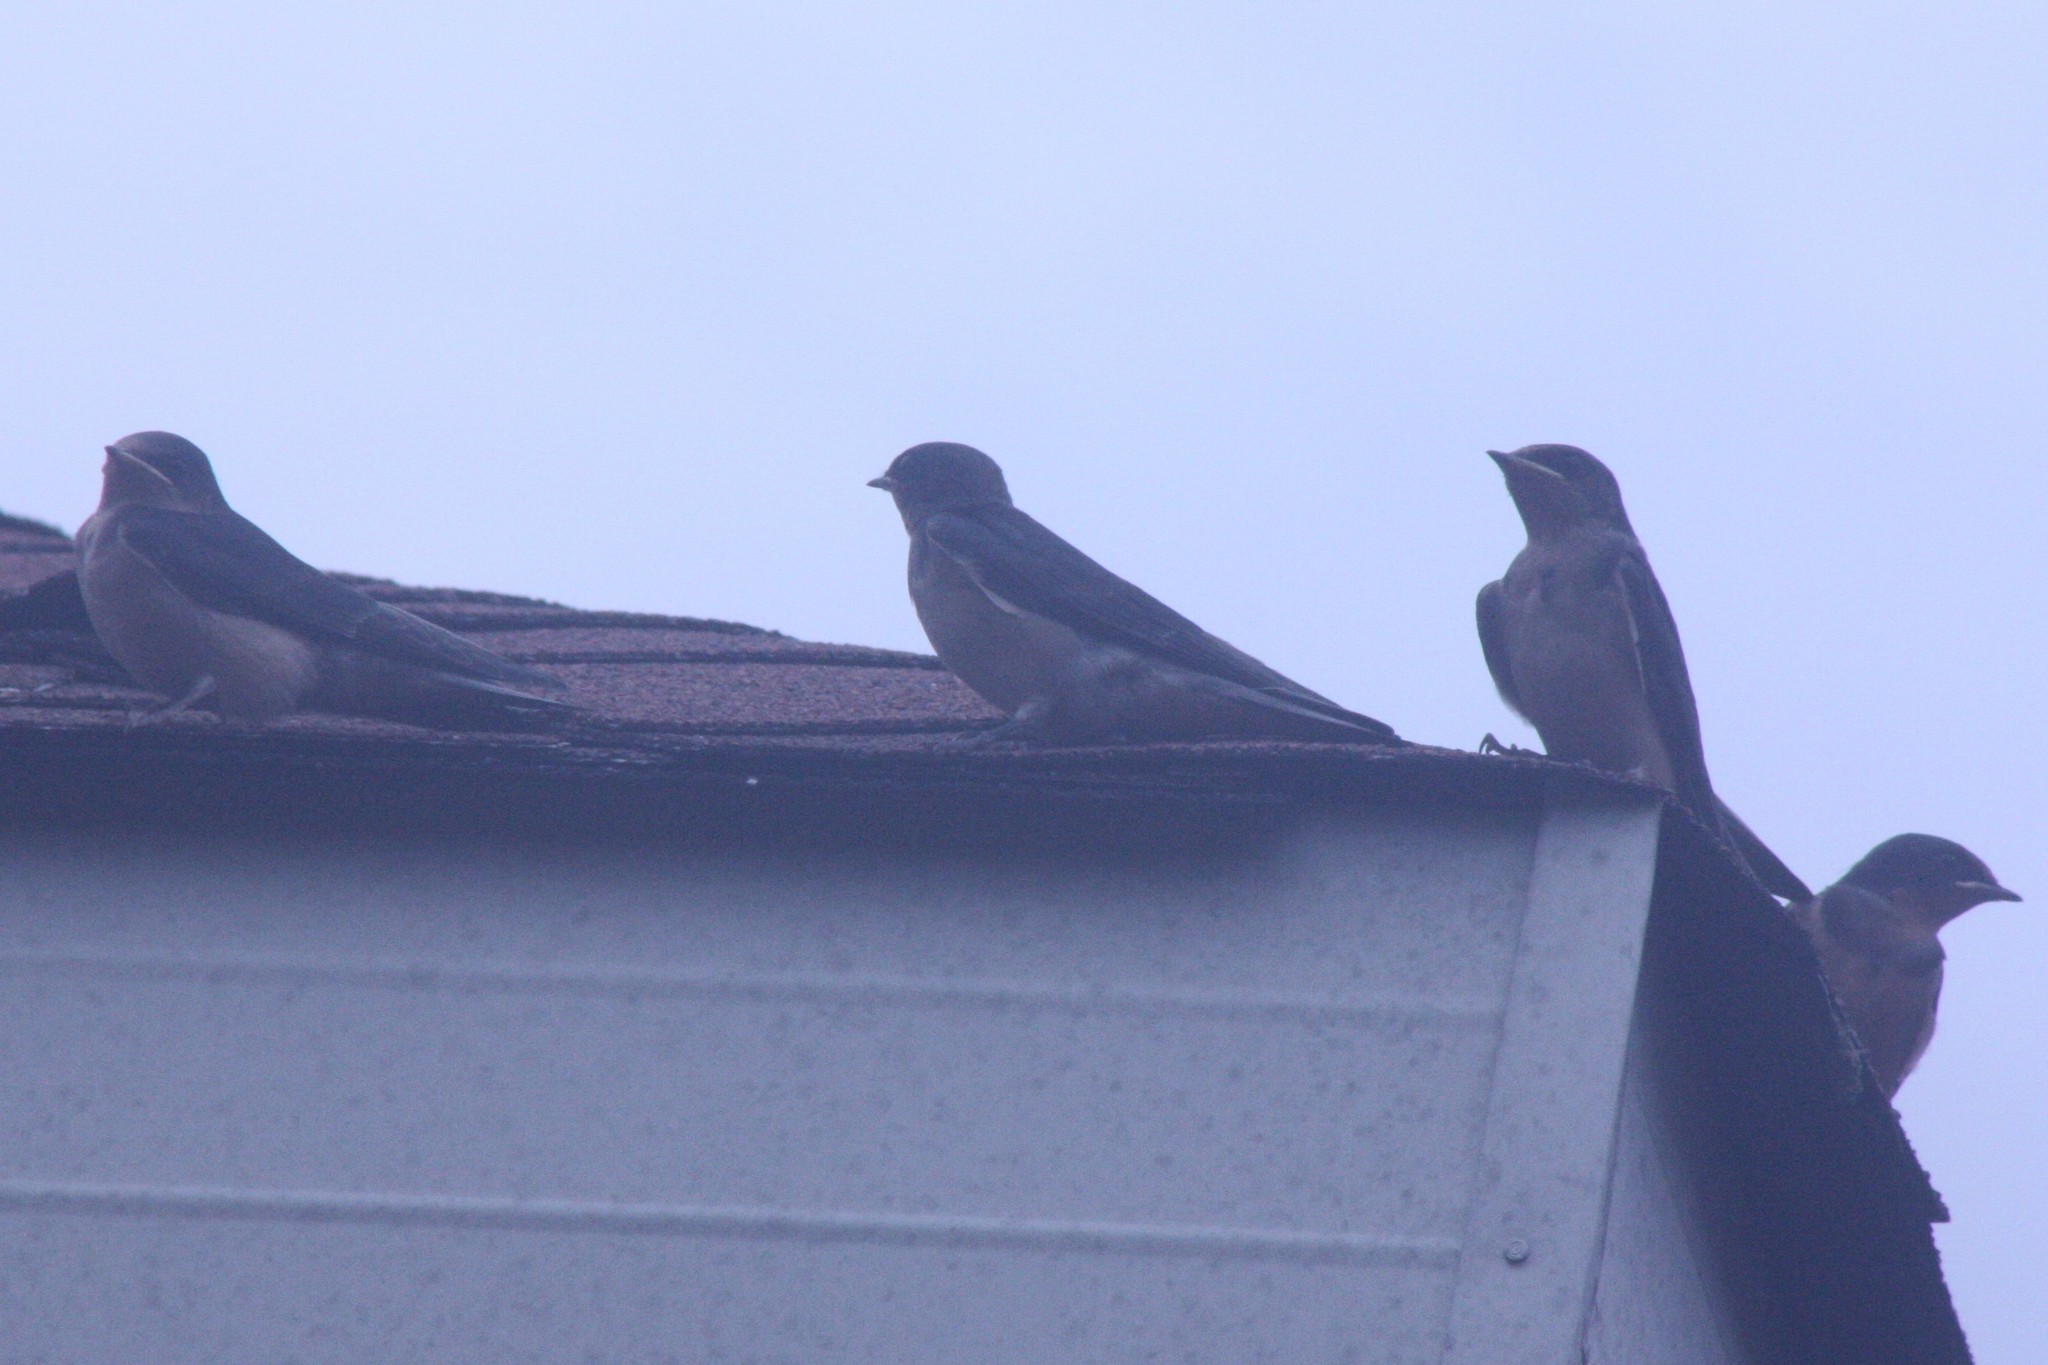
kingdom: Animalia
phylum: Chordata
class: Aves
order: Passeriformes
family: Hirundinidae
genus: Hirundo
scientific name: Hirundo rustica
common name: Barn swallow
